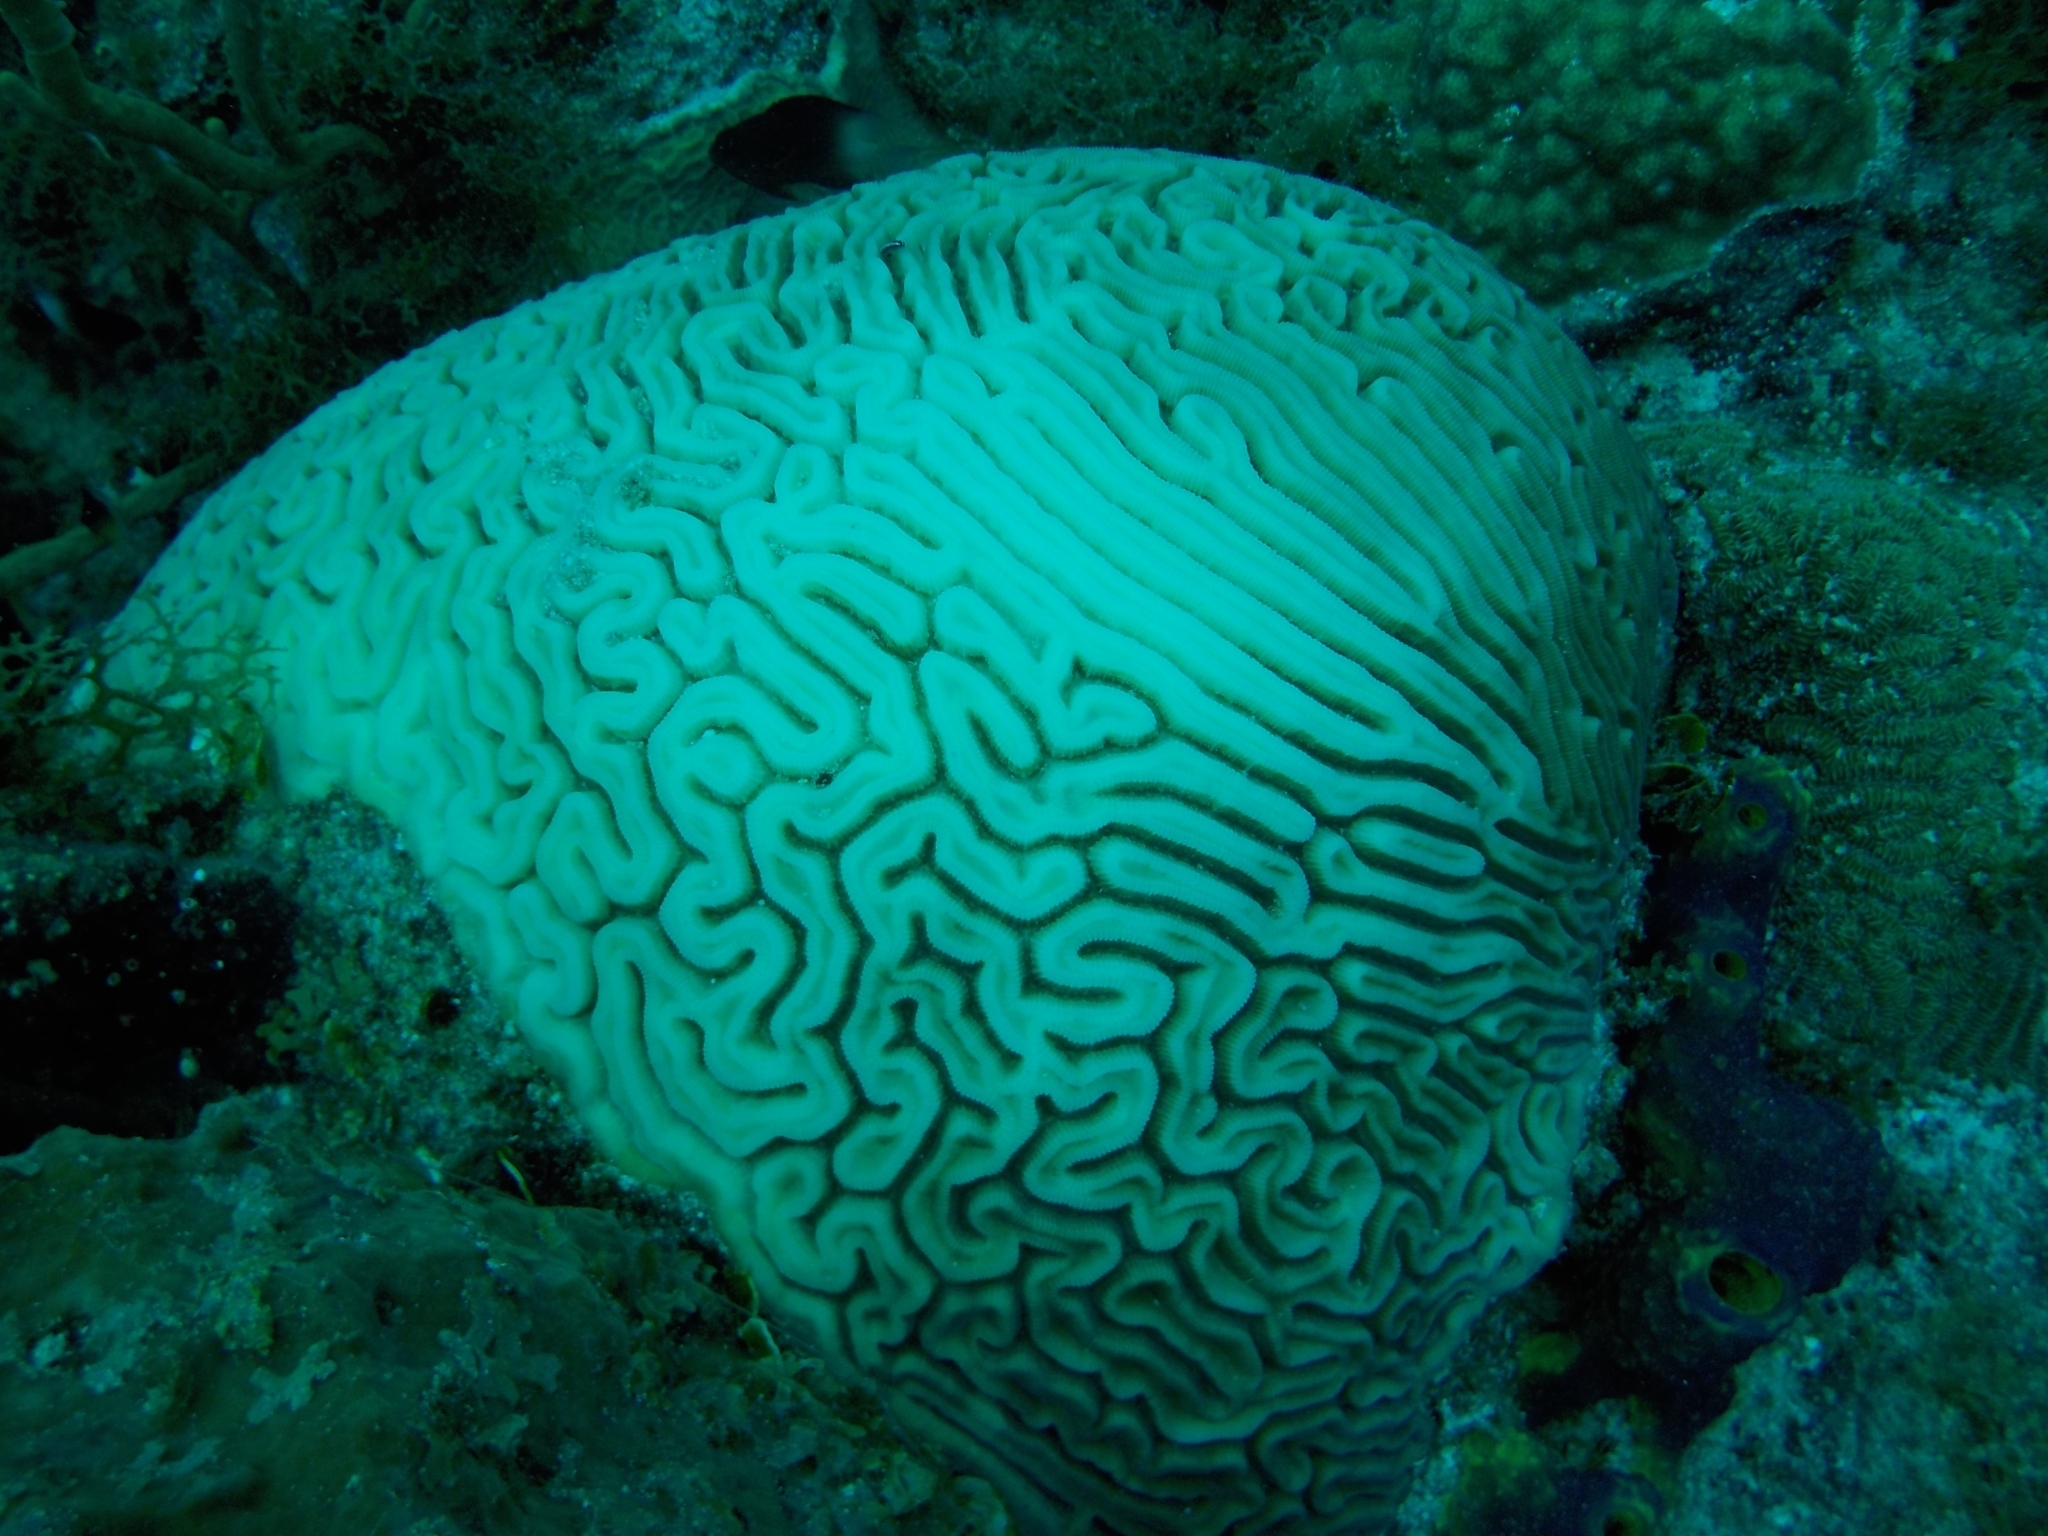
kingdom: Animalia
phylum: Cnidaria
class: Anthozoa
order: Scleractinia
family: Faviidae
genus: Diploria
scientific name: Diploria labyrinthiformis
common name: Grooved brain coral
